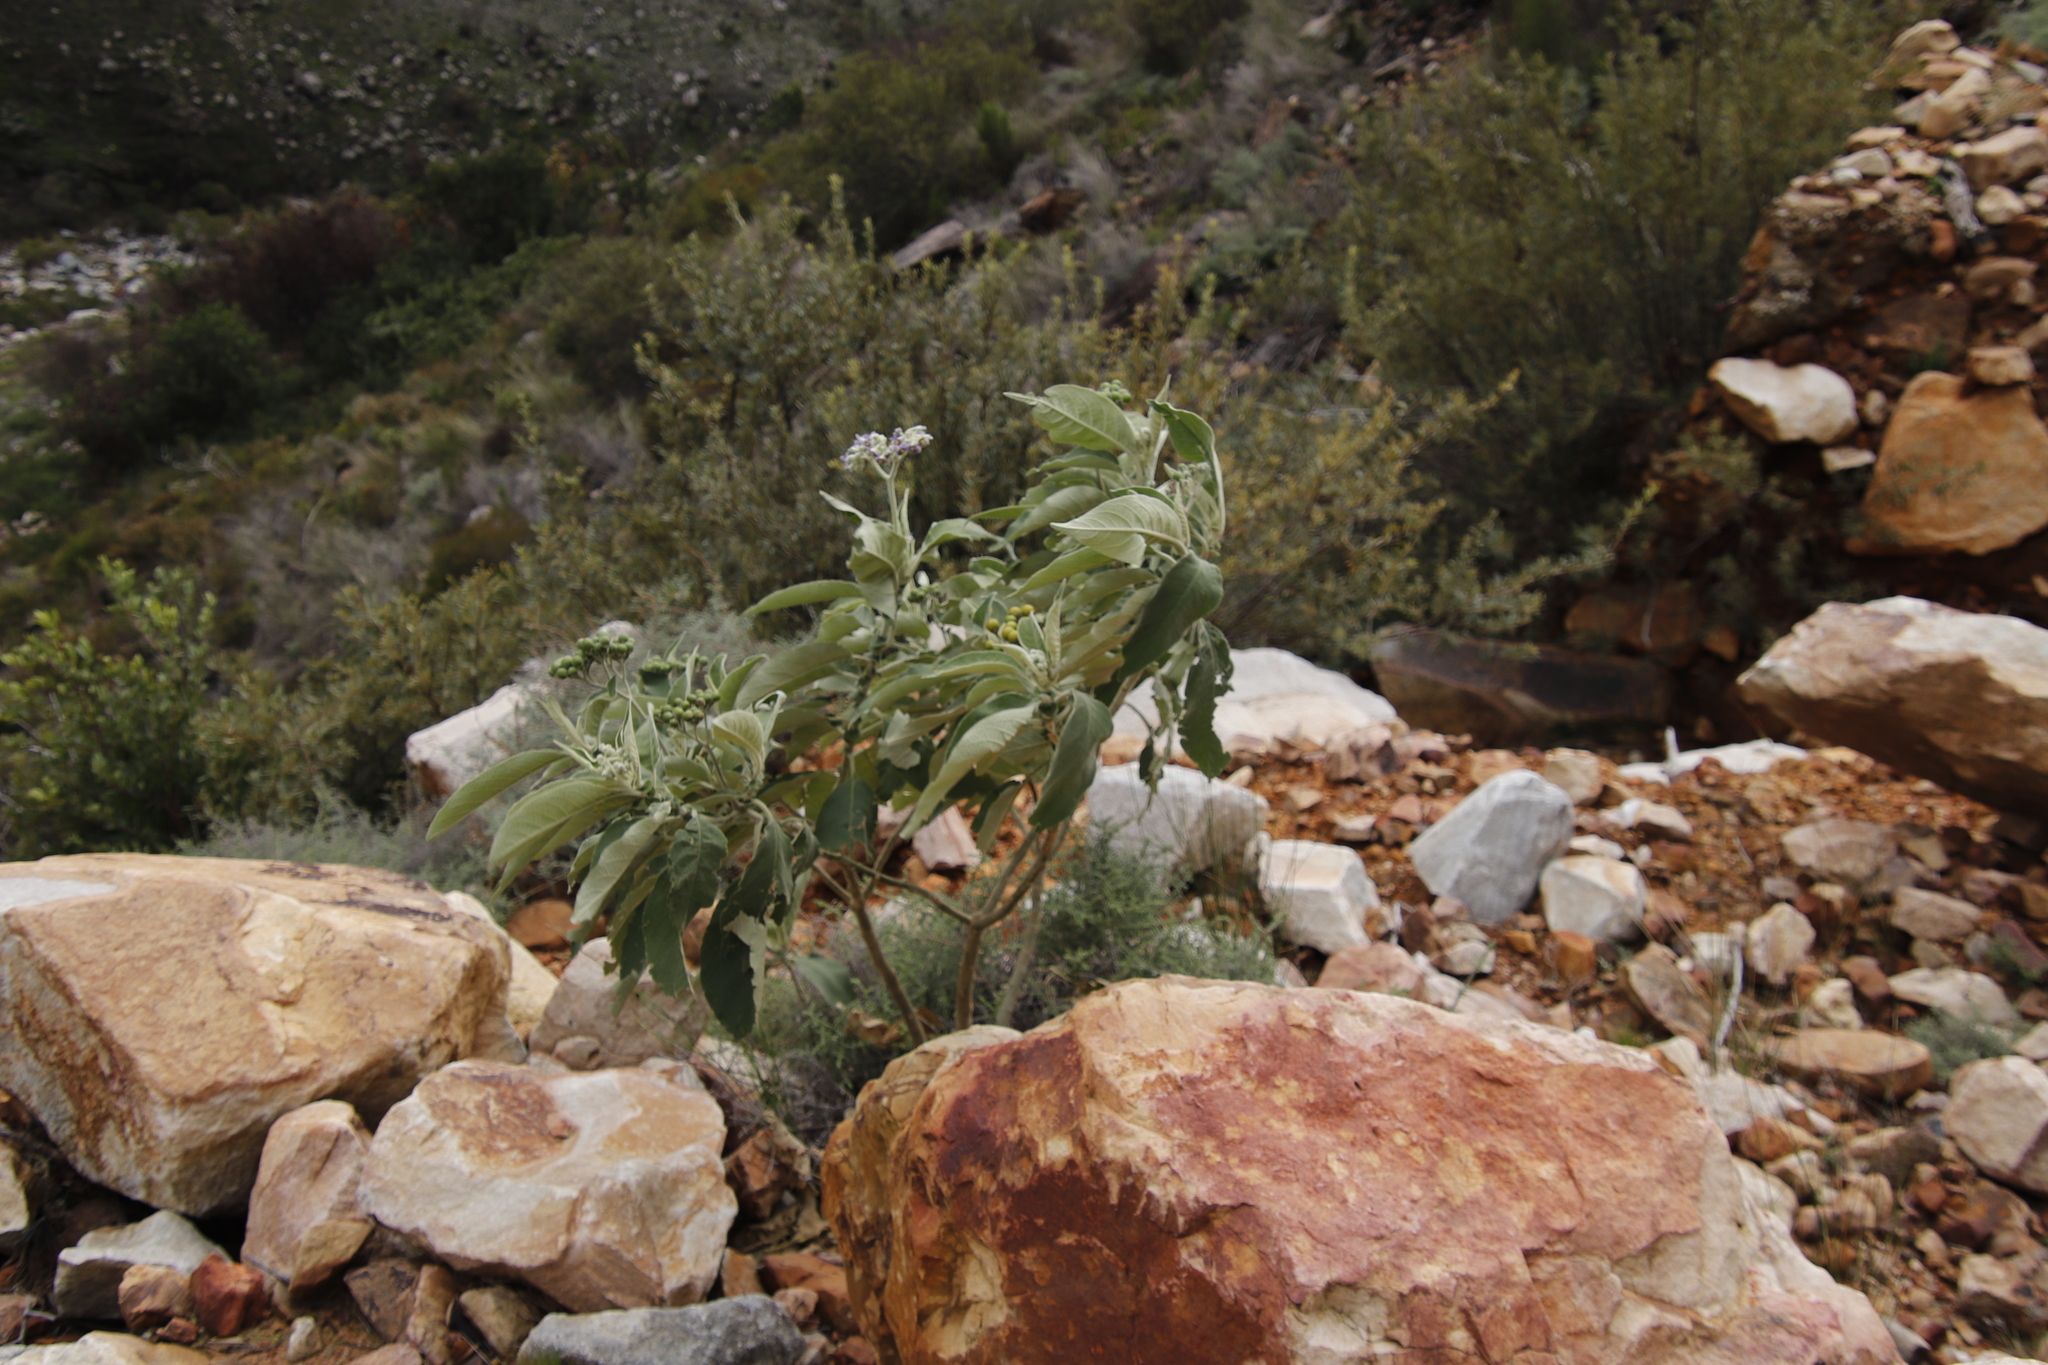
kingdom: Plantae
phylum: Tracheophyta
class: Magnoliopsida
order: Solanales
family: Solanaceae
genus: Solanum
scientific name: Solanum mauritianum
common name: Earleaf nightshade
